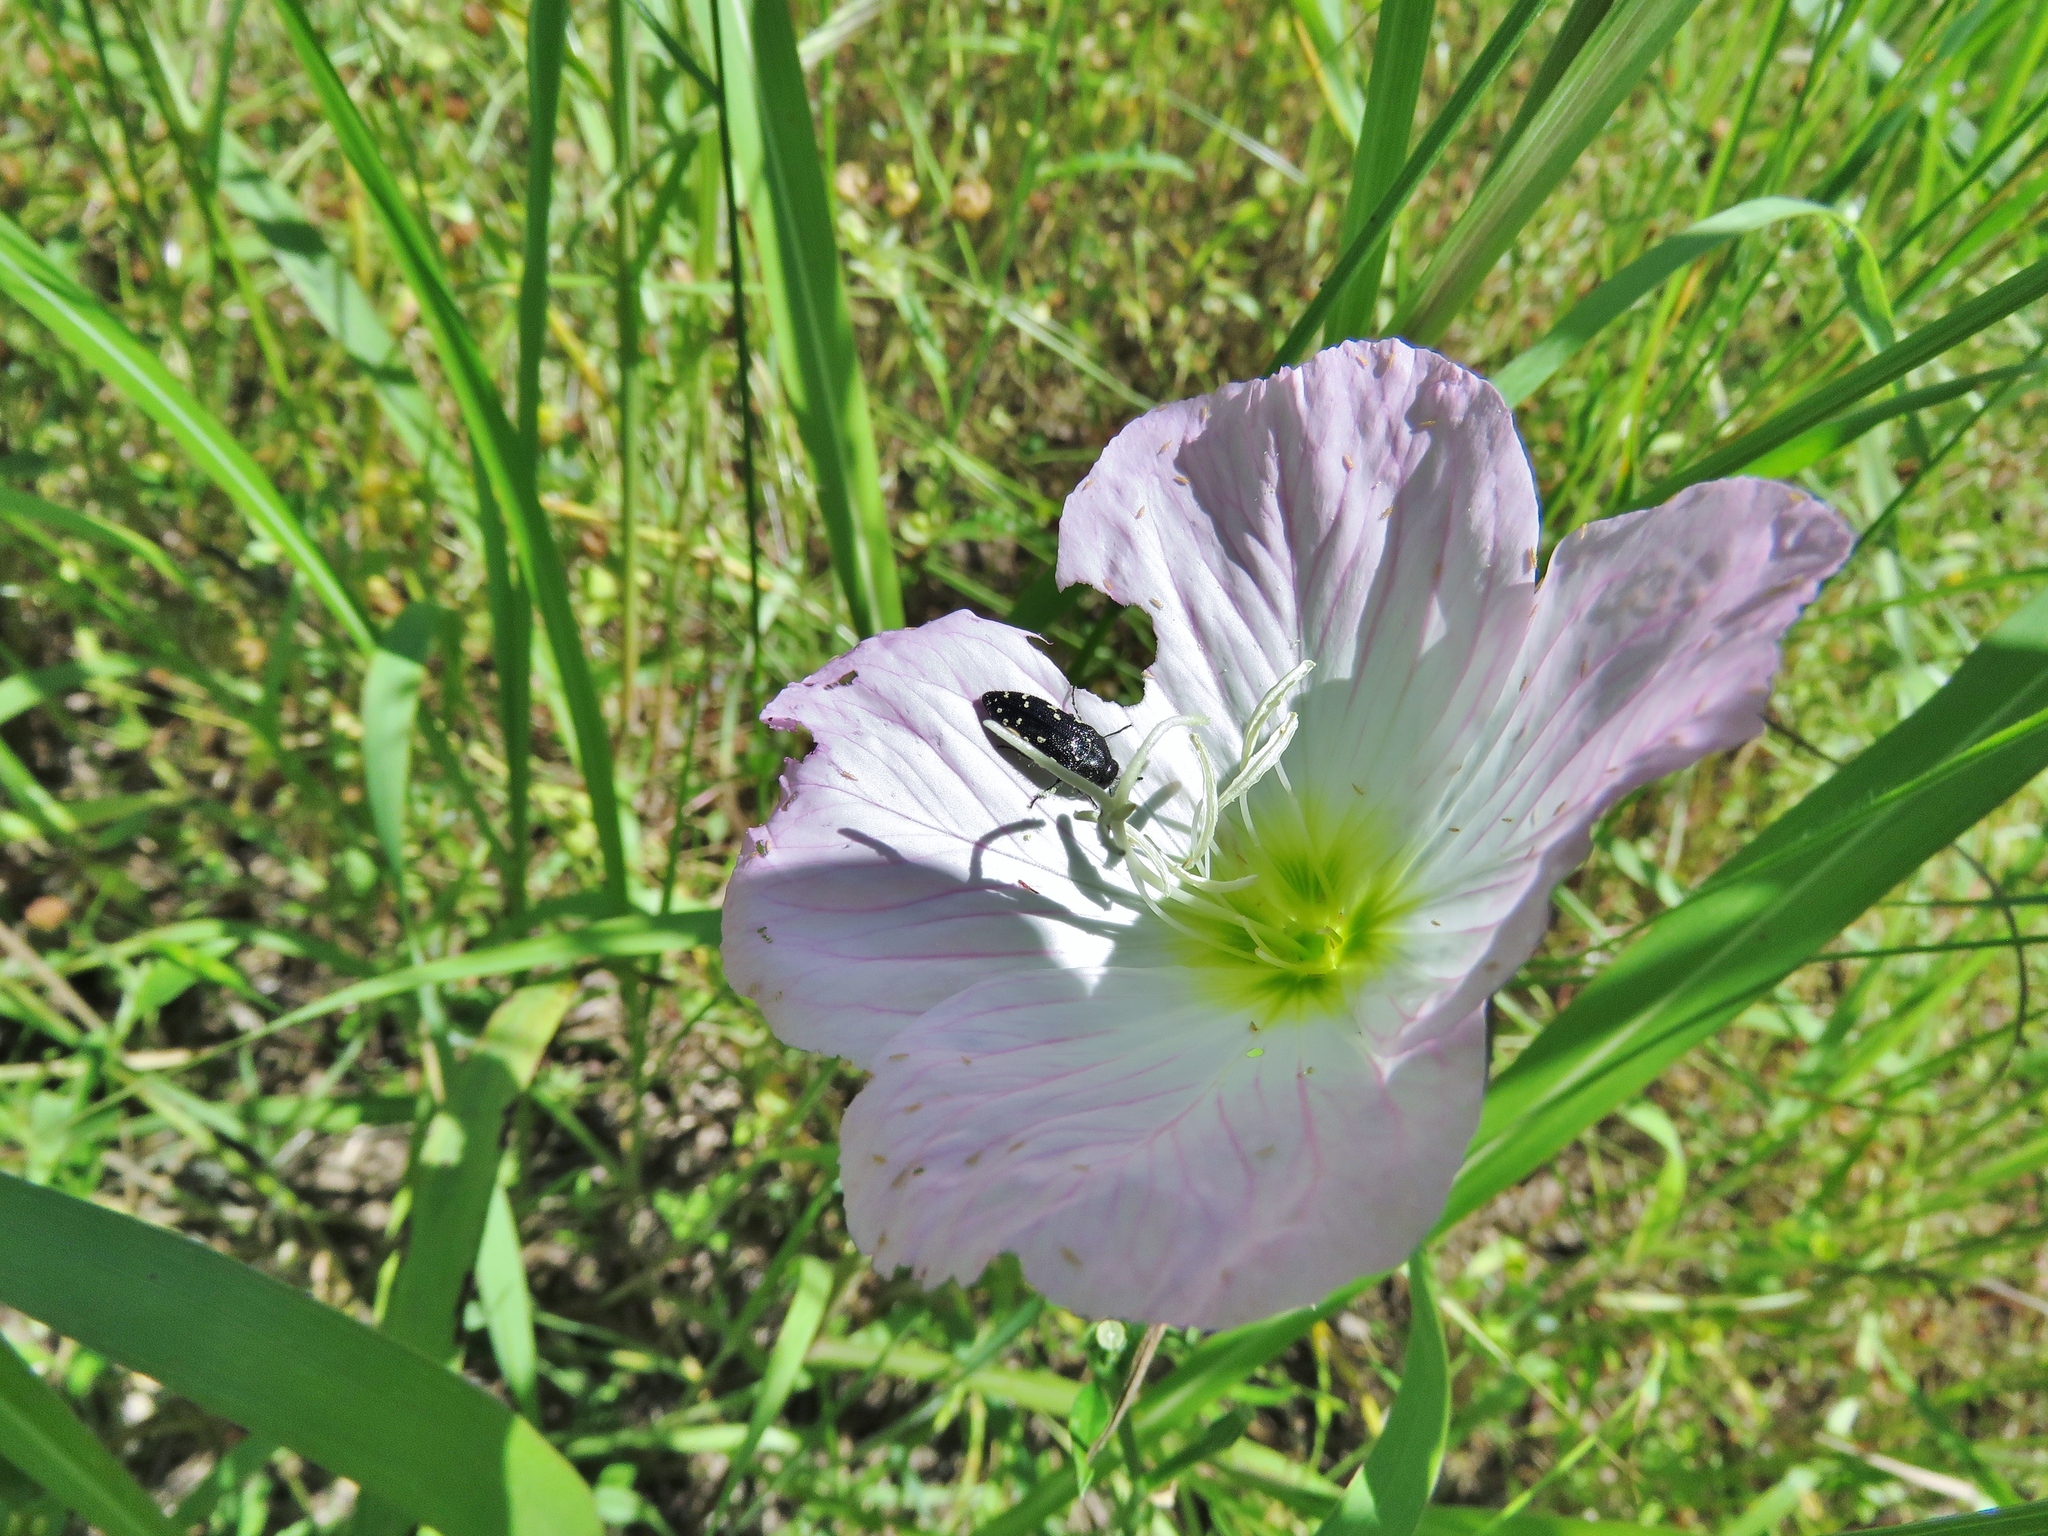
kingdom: Plantae
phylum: Tracheophyta
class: Magnoliopsida
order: Myrtales
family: Onagraceae
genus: Oenothera
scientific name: Oenothera speciosa
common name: White evening-primrose
